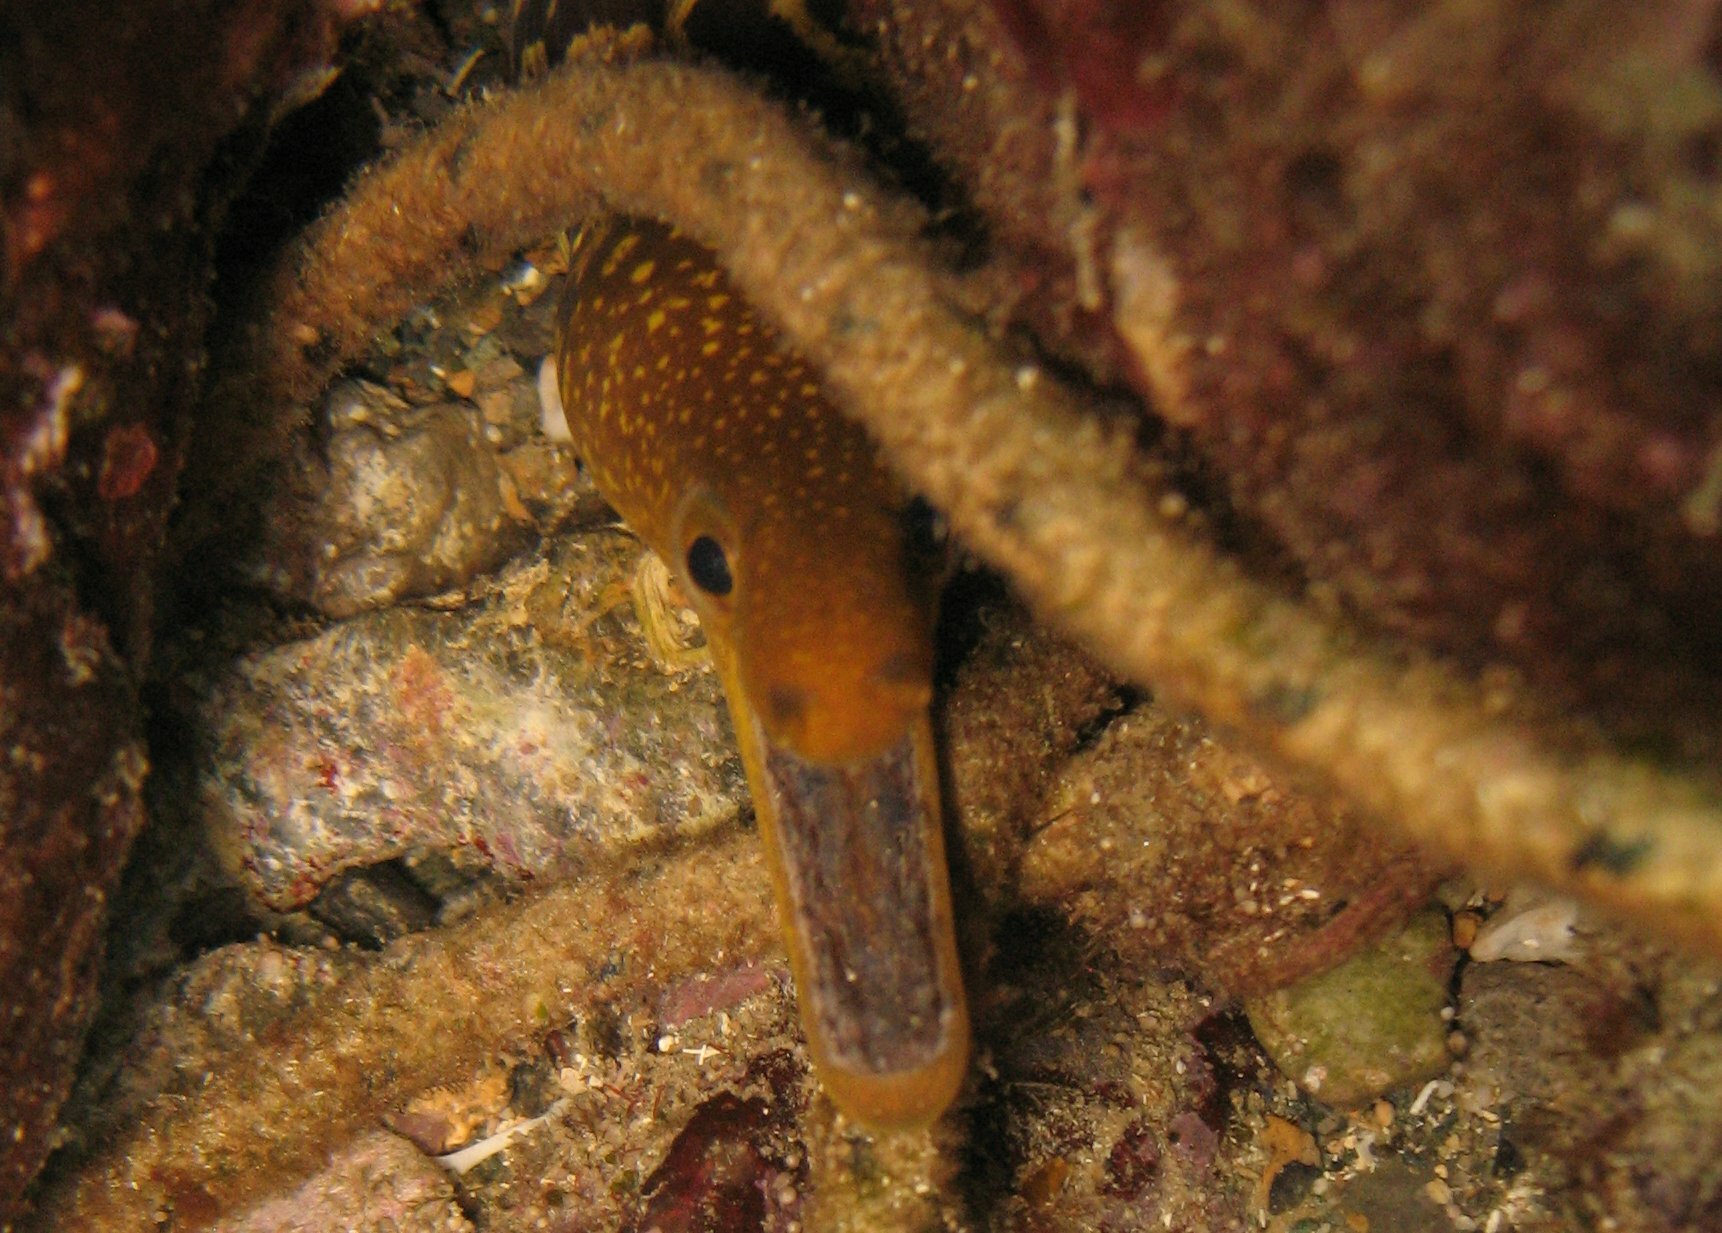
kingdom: Animalia
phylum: Chordata
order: Anguilliformes
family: Muraenidae
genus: Enchelycore
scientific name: Enchelycore anatina
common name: Fangtooth moray
